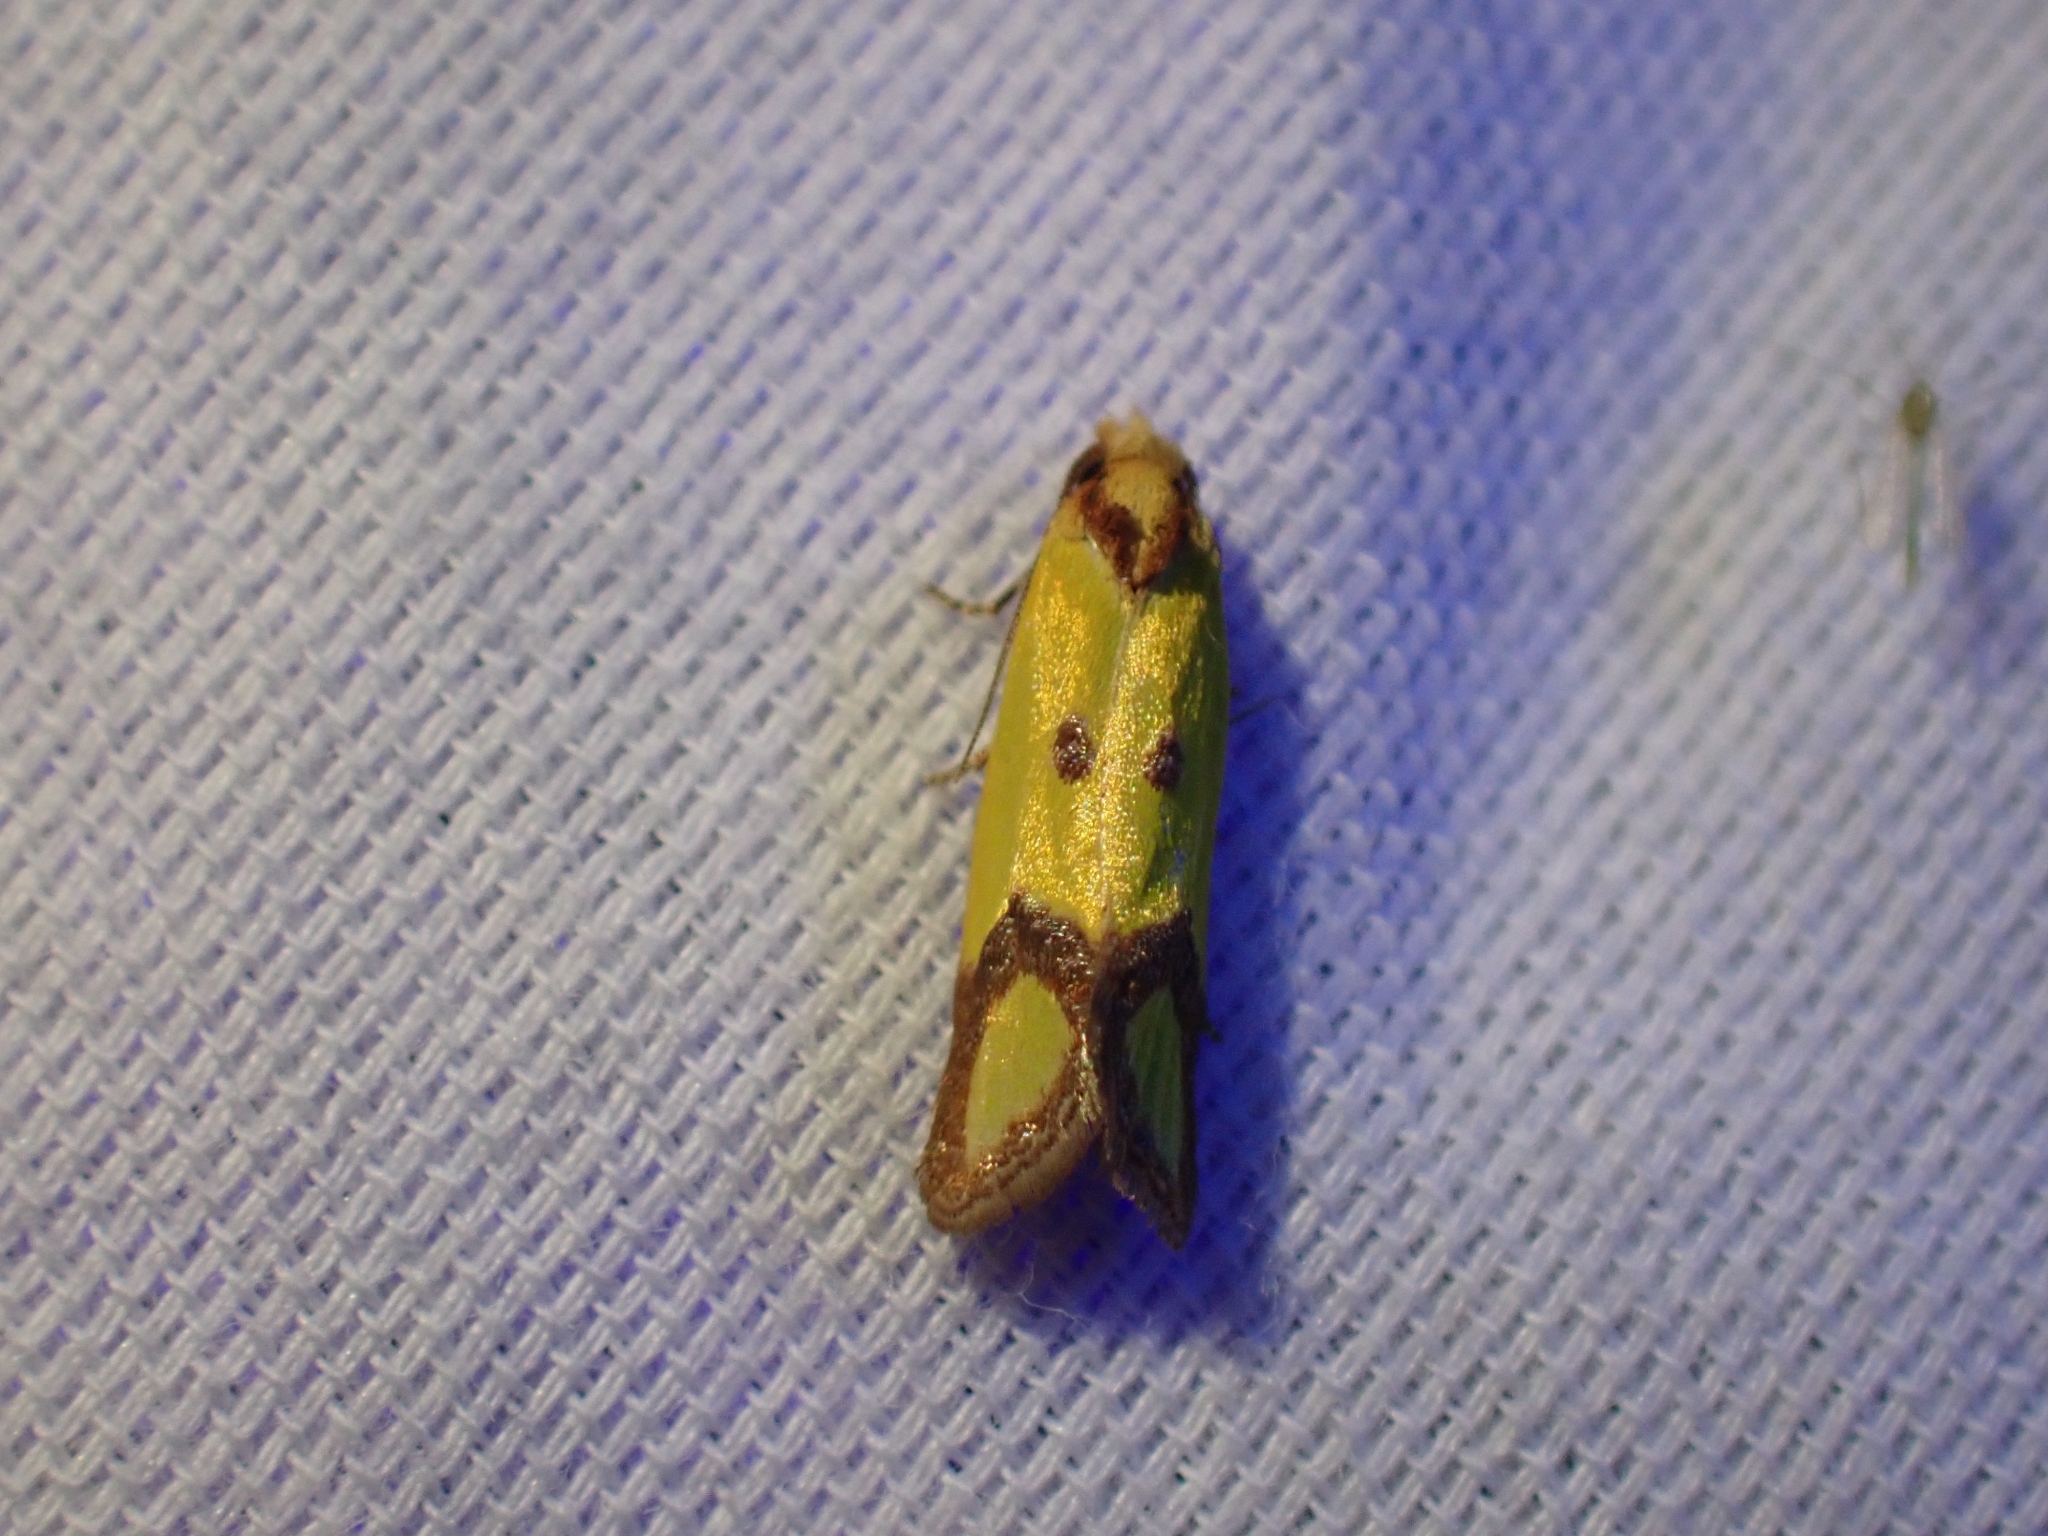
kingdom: Animalia
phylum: Arthropoda
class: Insecta
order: Lepidoptera
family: Tortricidae
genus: Agapeta
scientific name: Agapeta zoegana
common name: Sulfur knapweed root moth
